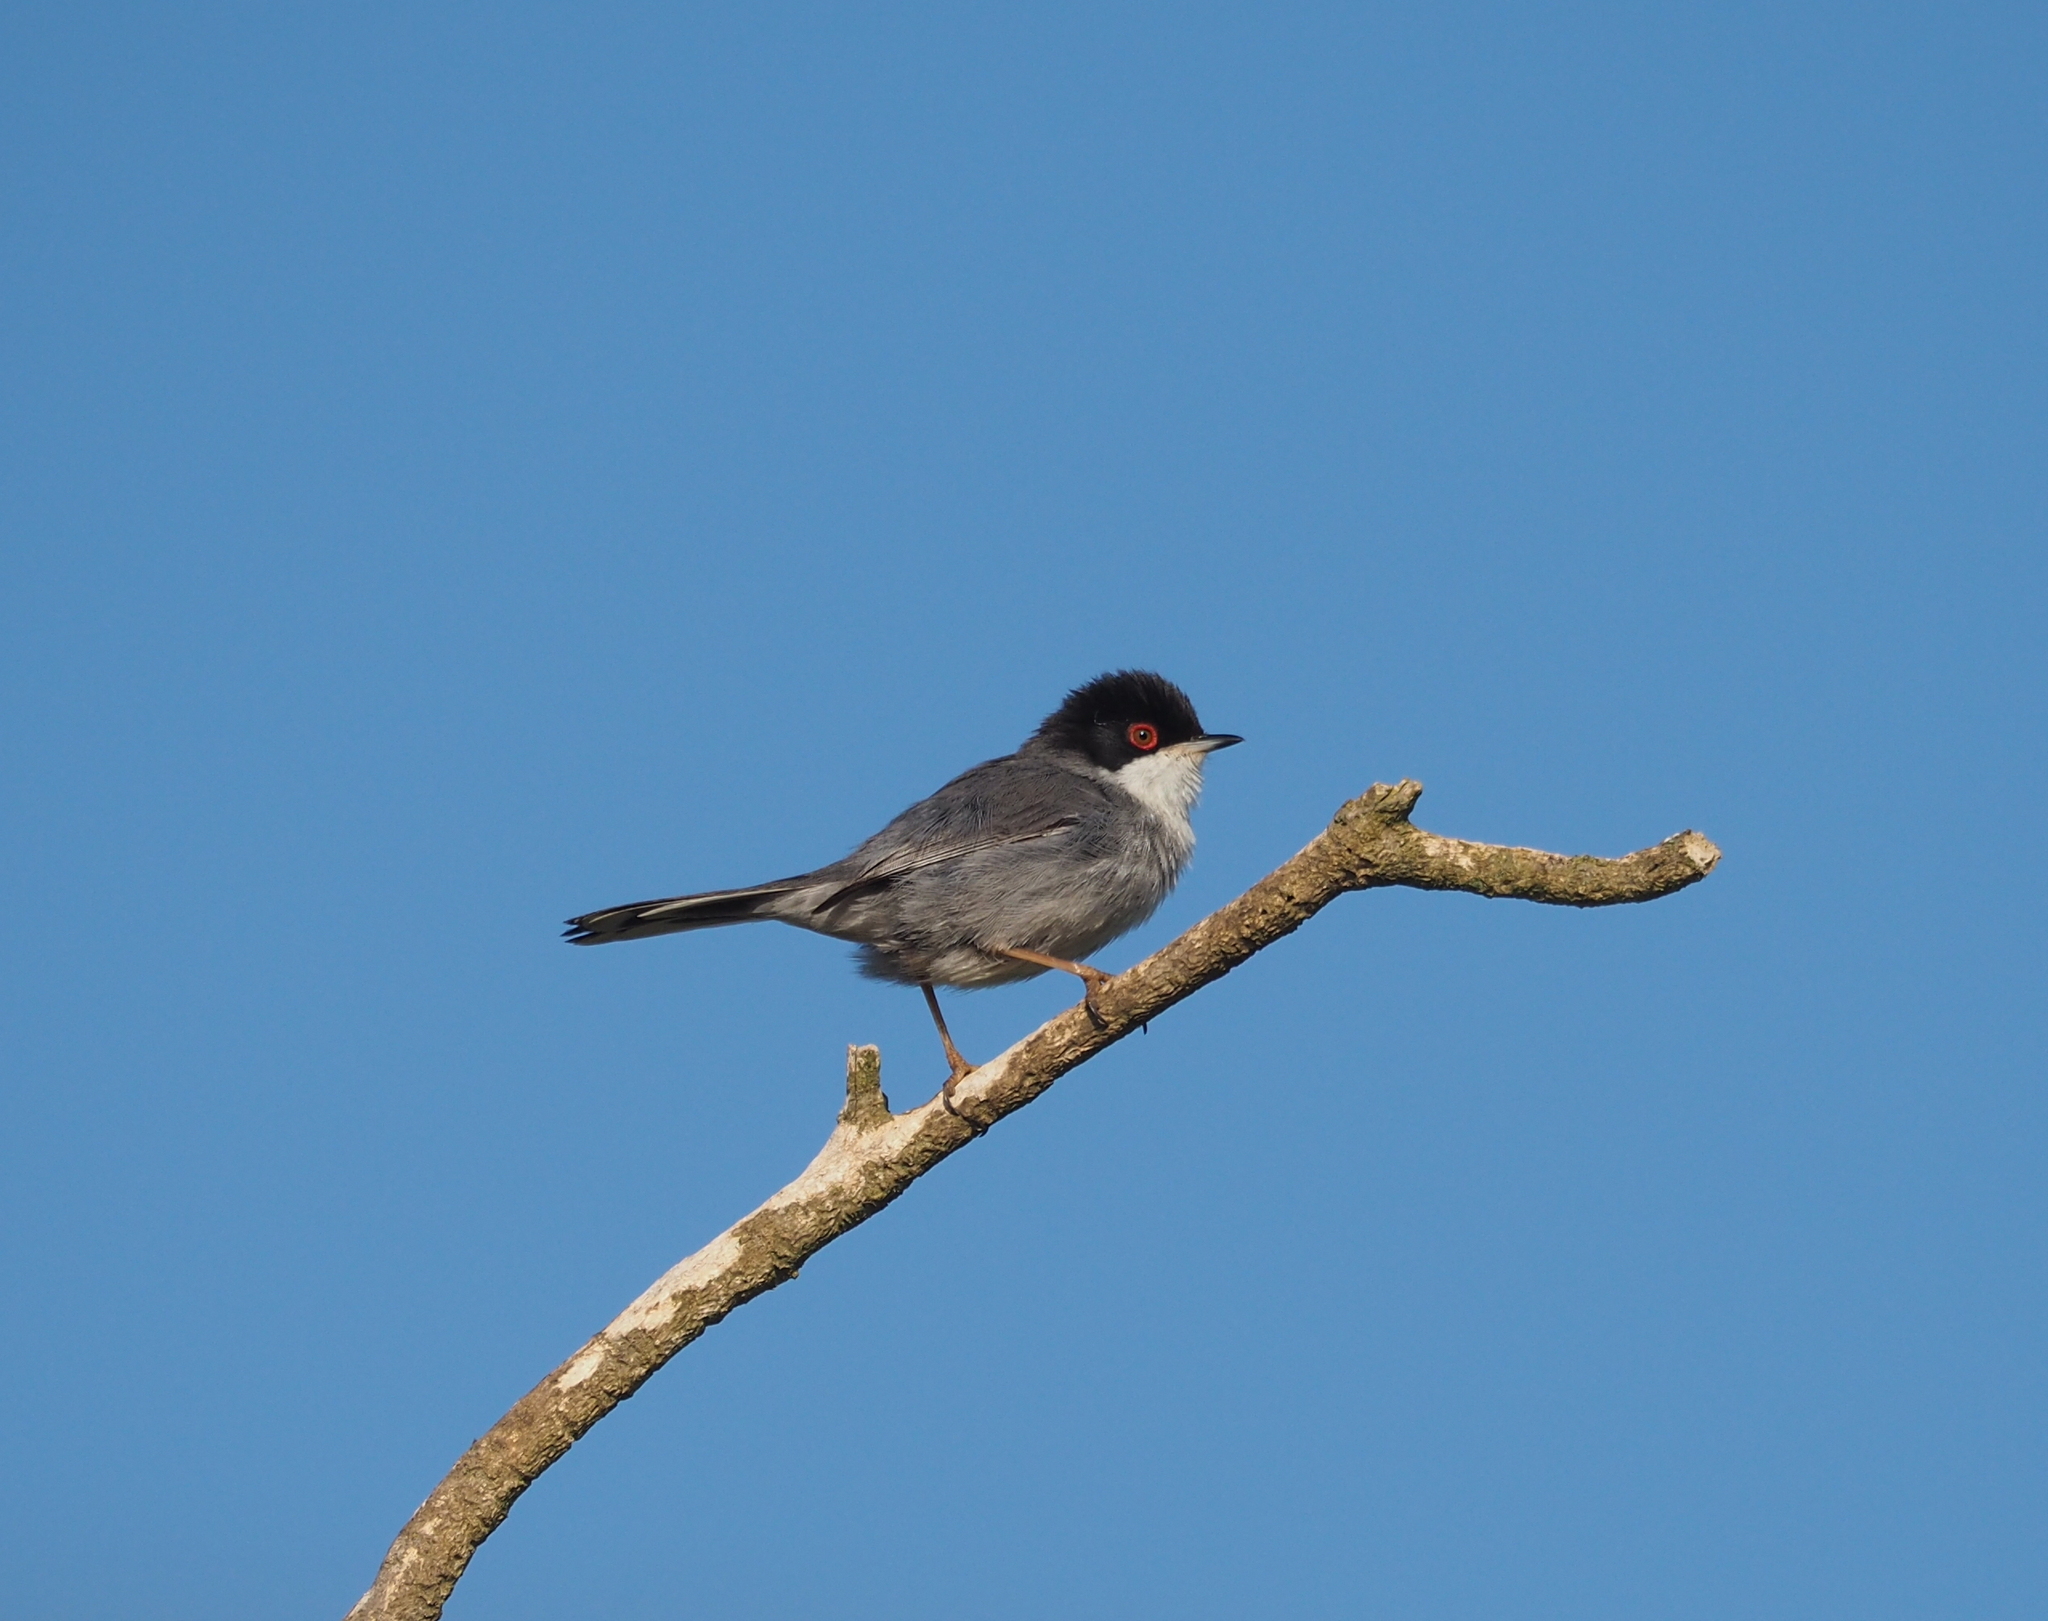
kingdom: Animalia
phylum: Chordata
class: Aves
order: Passeriformes
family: Sylviidae
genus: Curruca
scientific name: Curruca melanocephala
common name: Sardinian warbler
